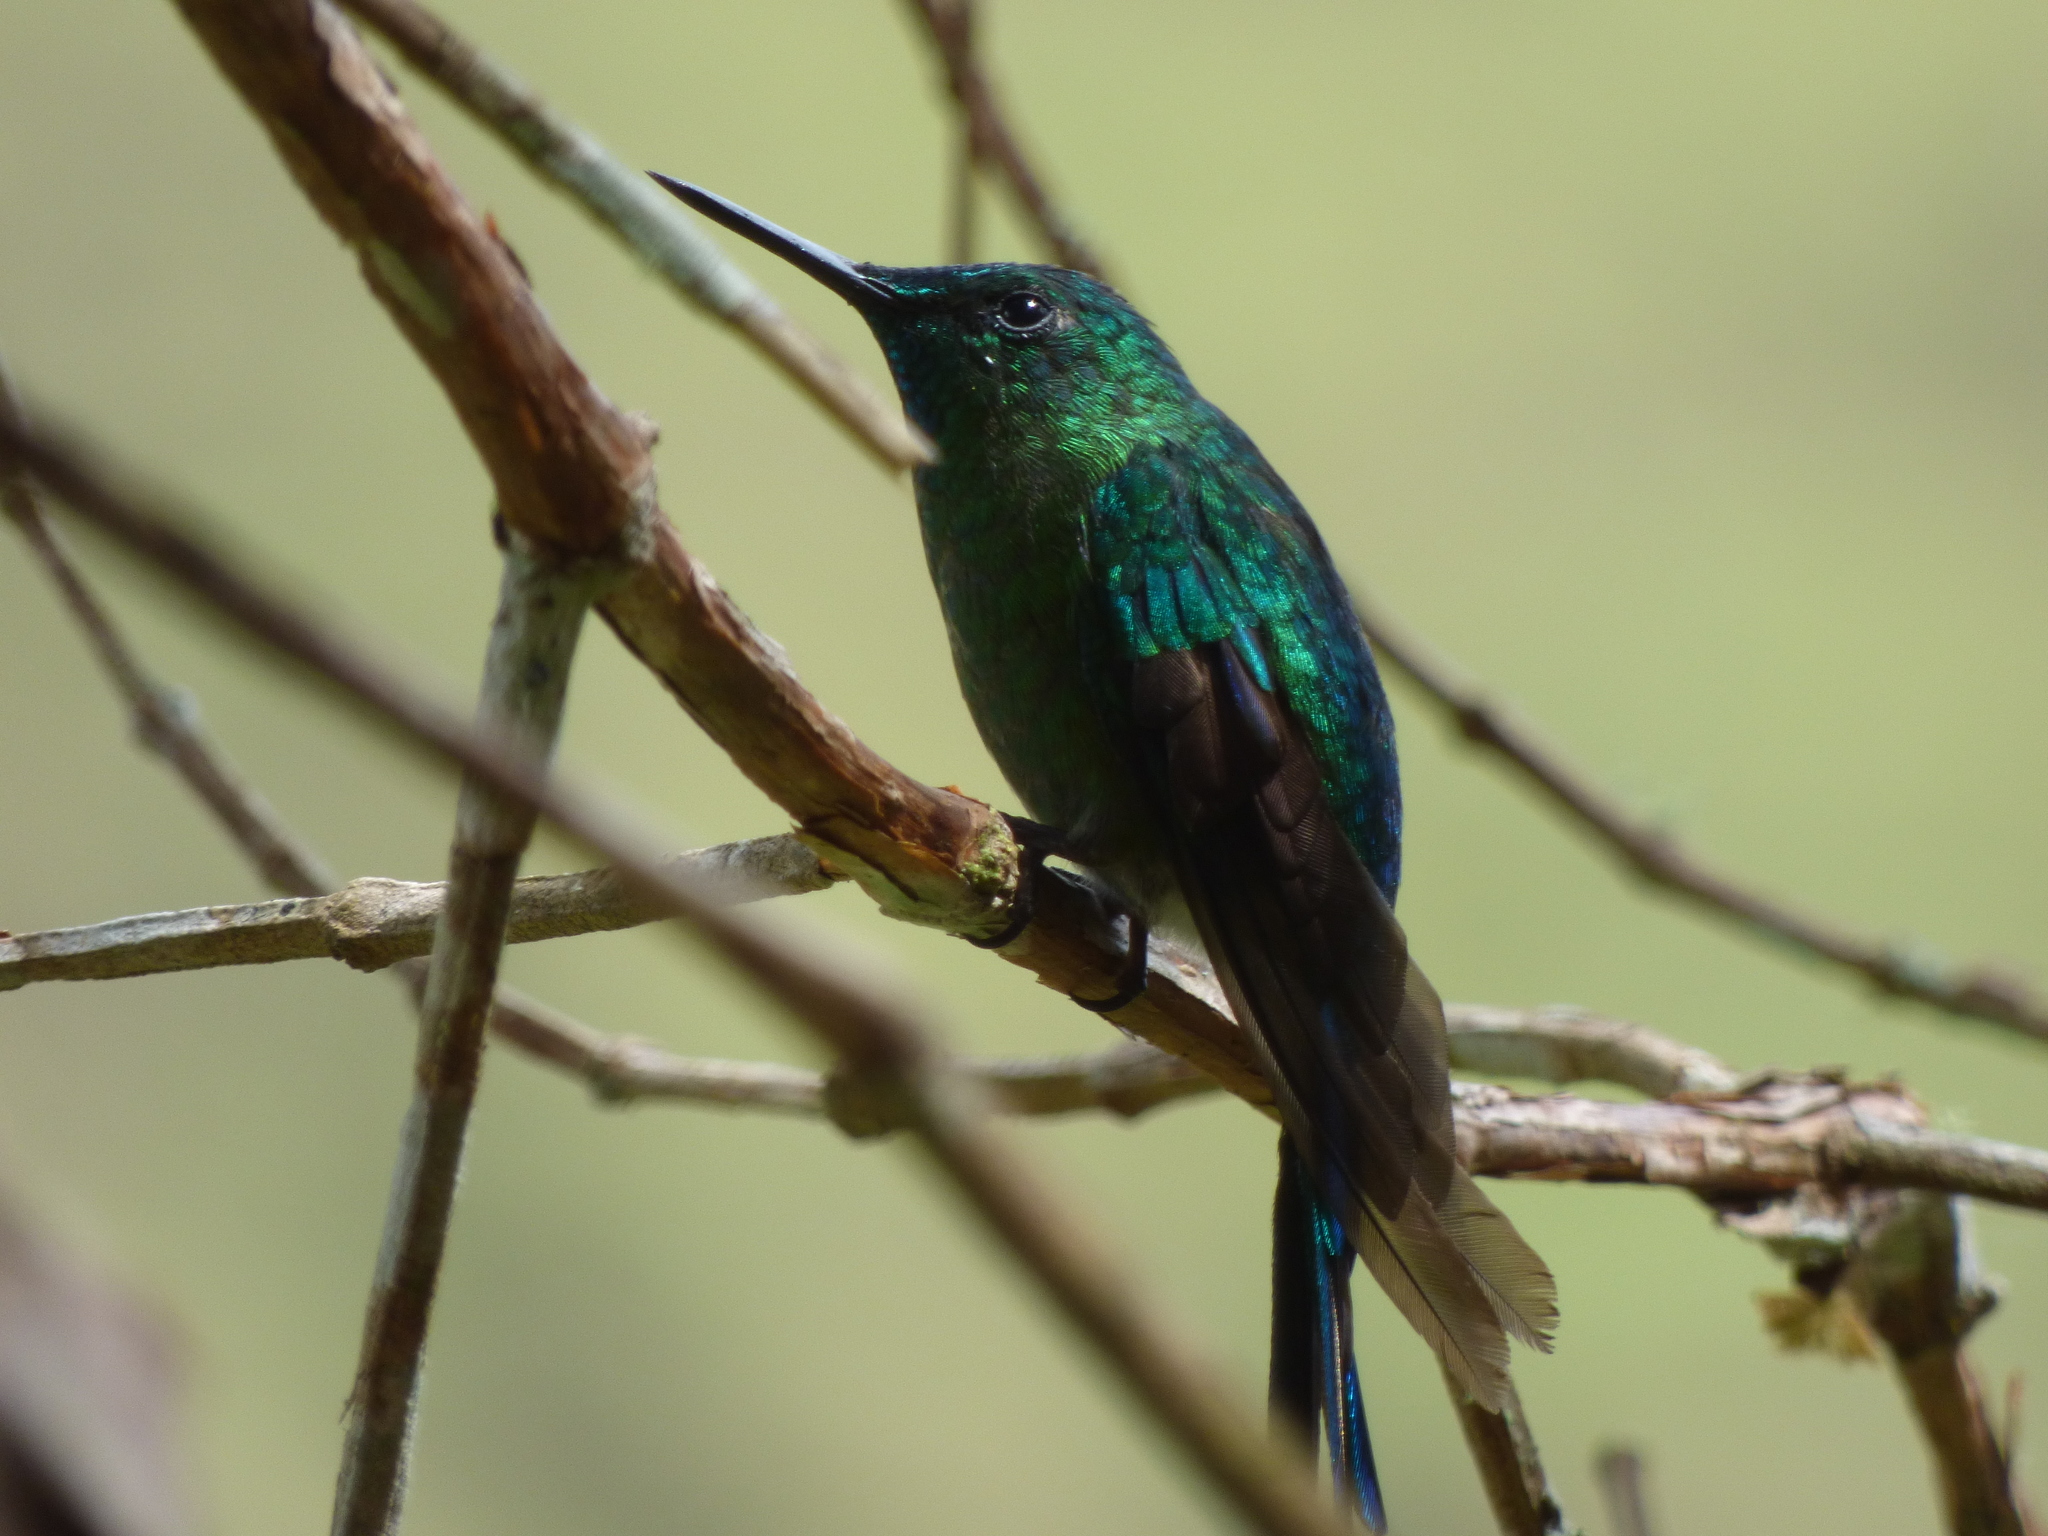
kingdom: Animalia
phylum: Chordata
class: Aves
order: Apodiformes
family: Trochilidae
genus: Chlorostilbon
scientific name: Chlorostilbon melanorhynchus
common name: Western emerald
